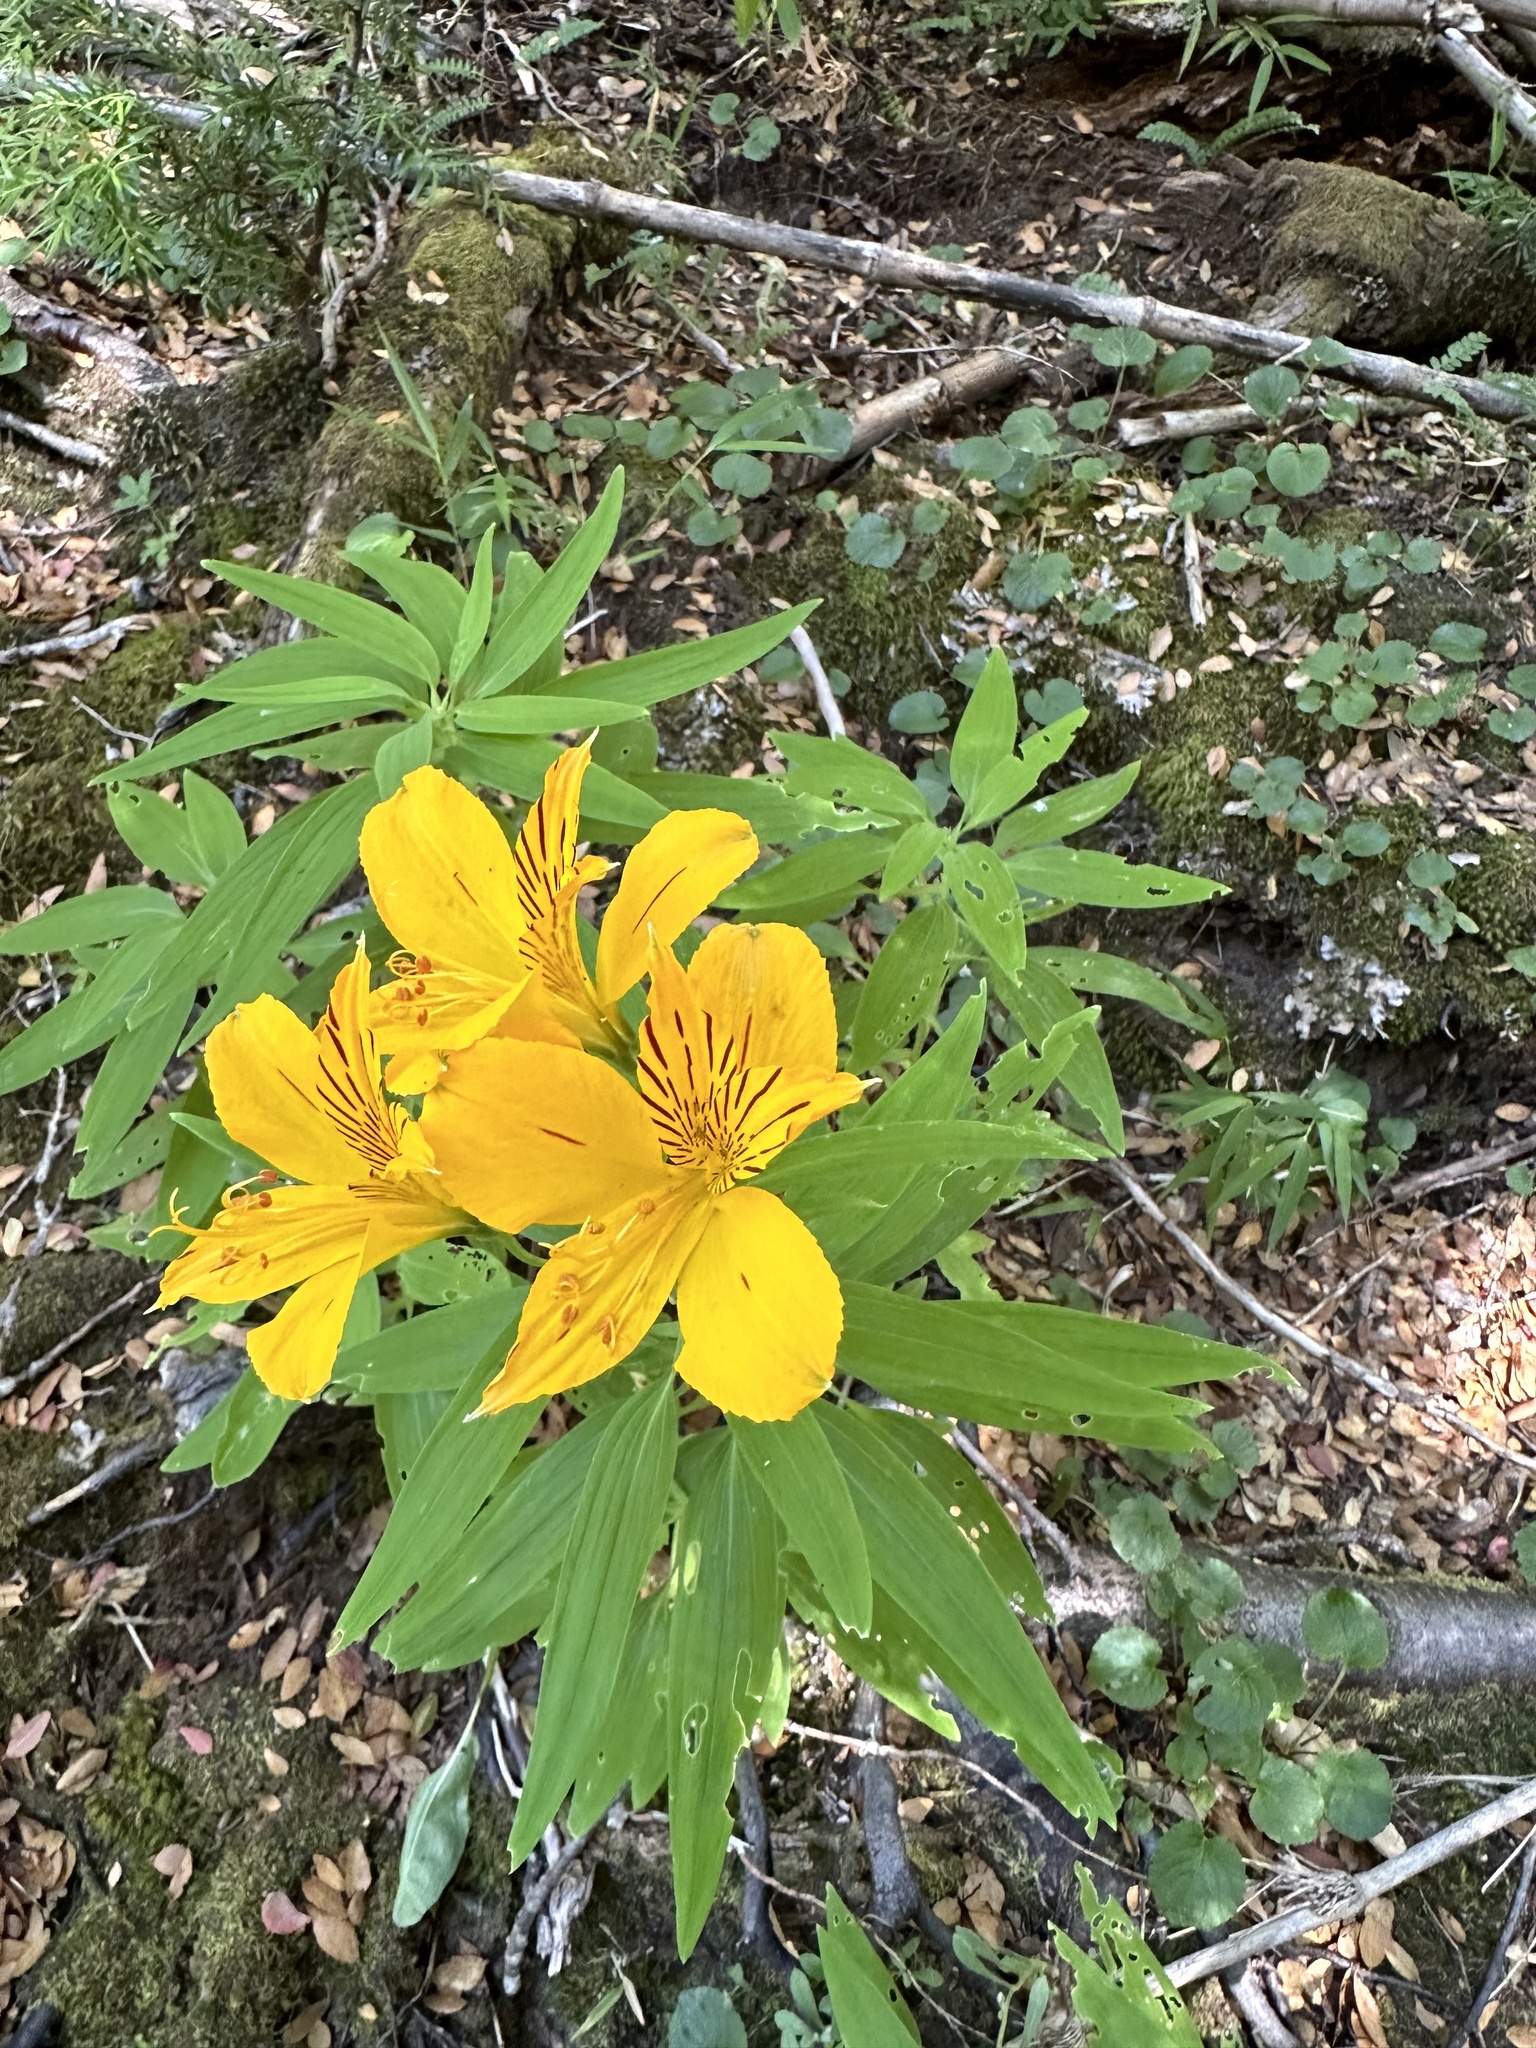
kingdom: Plantae
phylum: Tracheophyta
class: Liliopsida
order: Liliales
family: Alstroemeriaceae
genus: Alstroemeria
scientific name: Alstroemeria aurea
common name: Peruvian lily
